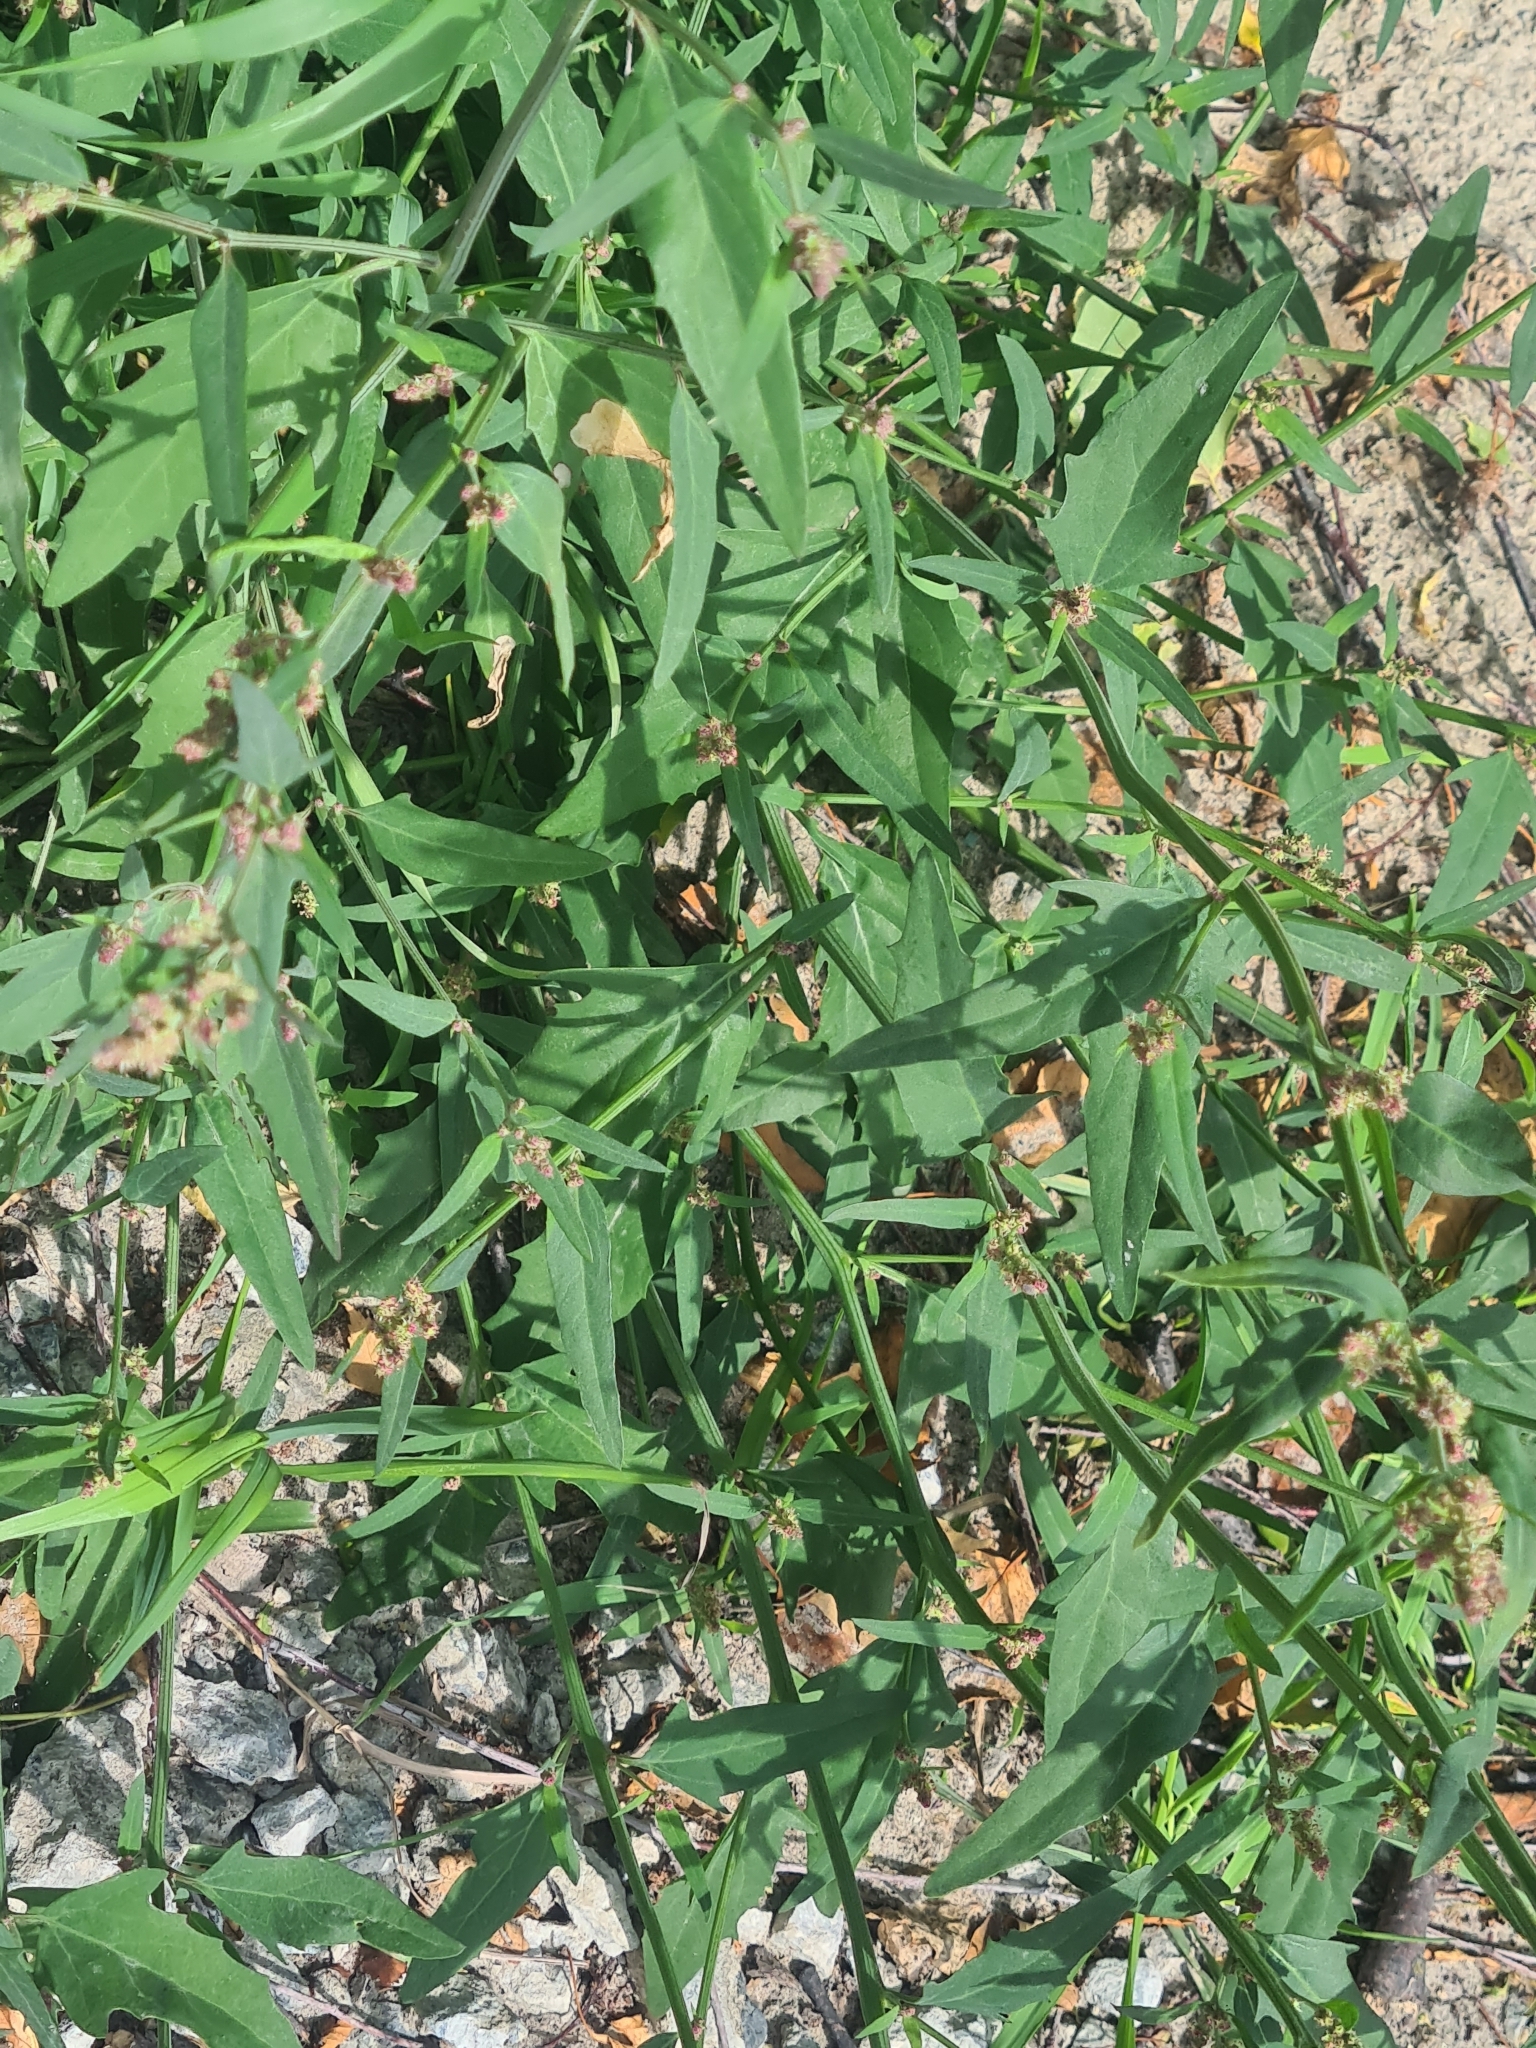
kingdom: Plantae
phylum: Tracheophyta
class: Magnoliopsida
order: Caryophyllales
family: Amaranthaceae
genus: Atriplex
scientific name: Atriplex patula
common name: Common orache
